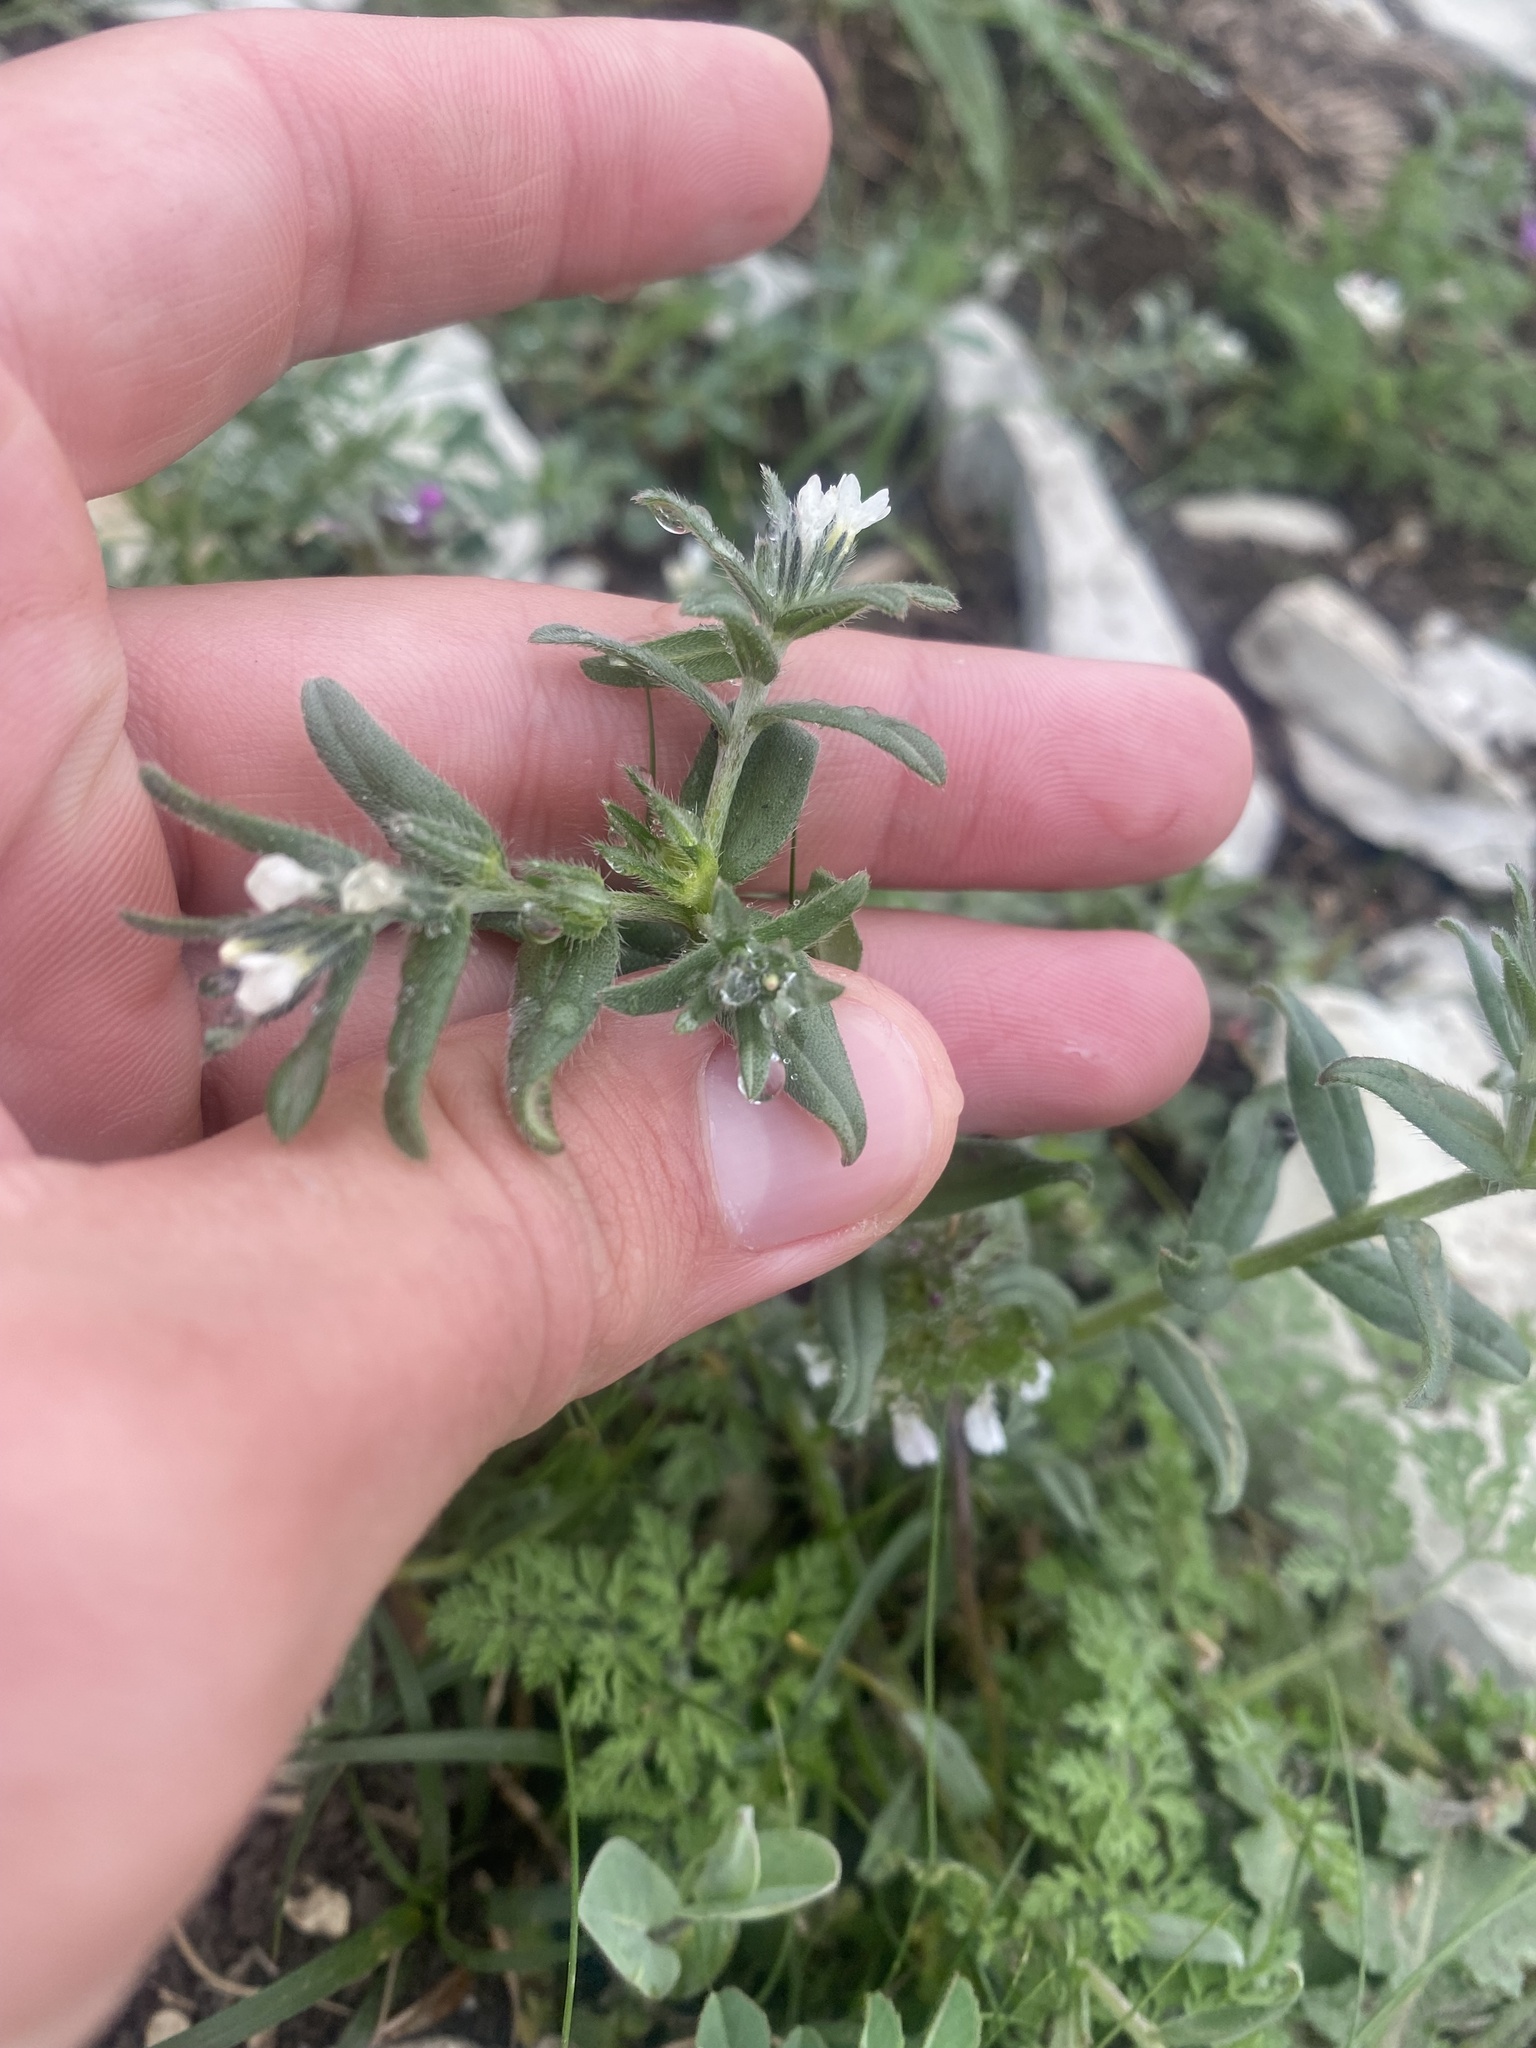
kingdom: Plantae
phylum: Tracheophyta
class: Magnoliopsida
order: Boraginales
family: Boraginaceae
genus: Buglossoides
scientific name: Buglossoides arvensis
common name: Corn gromwell
